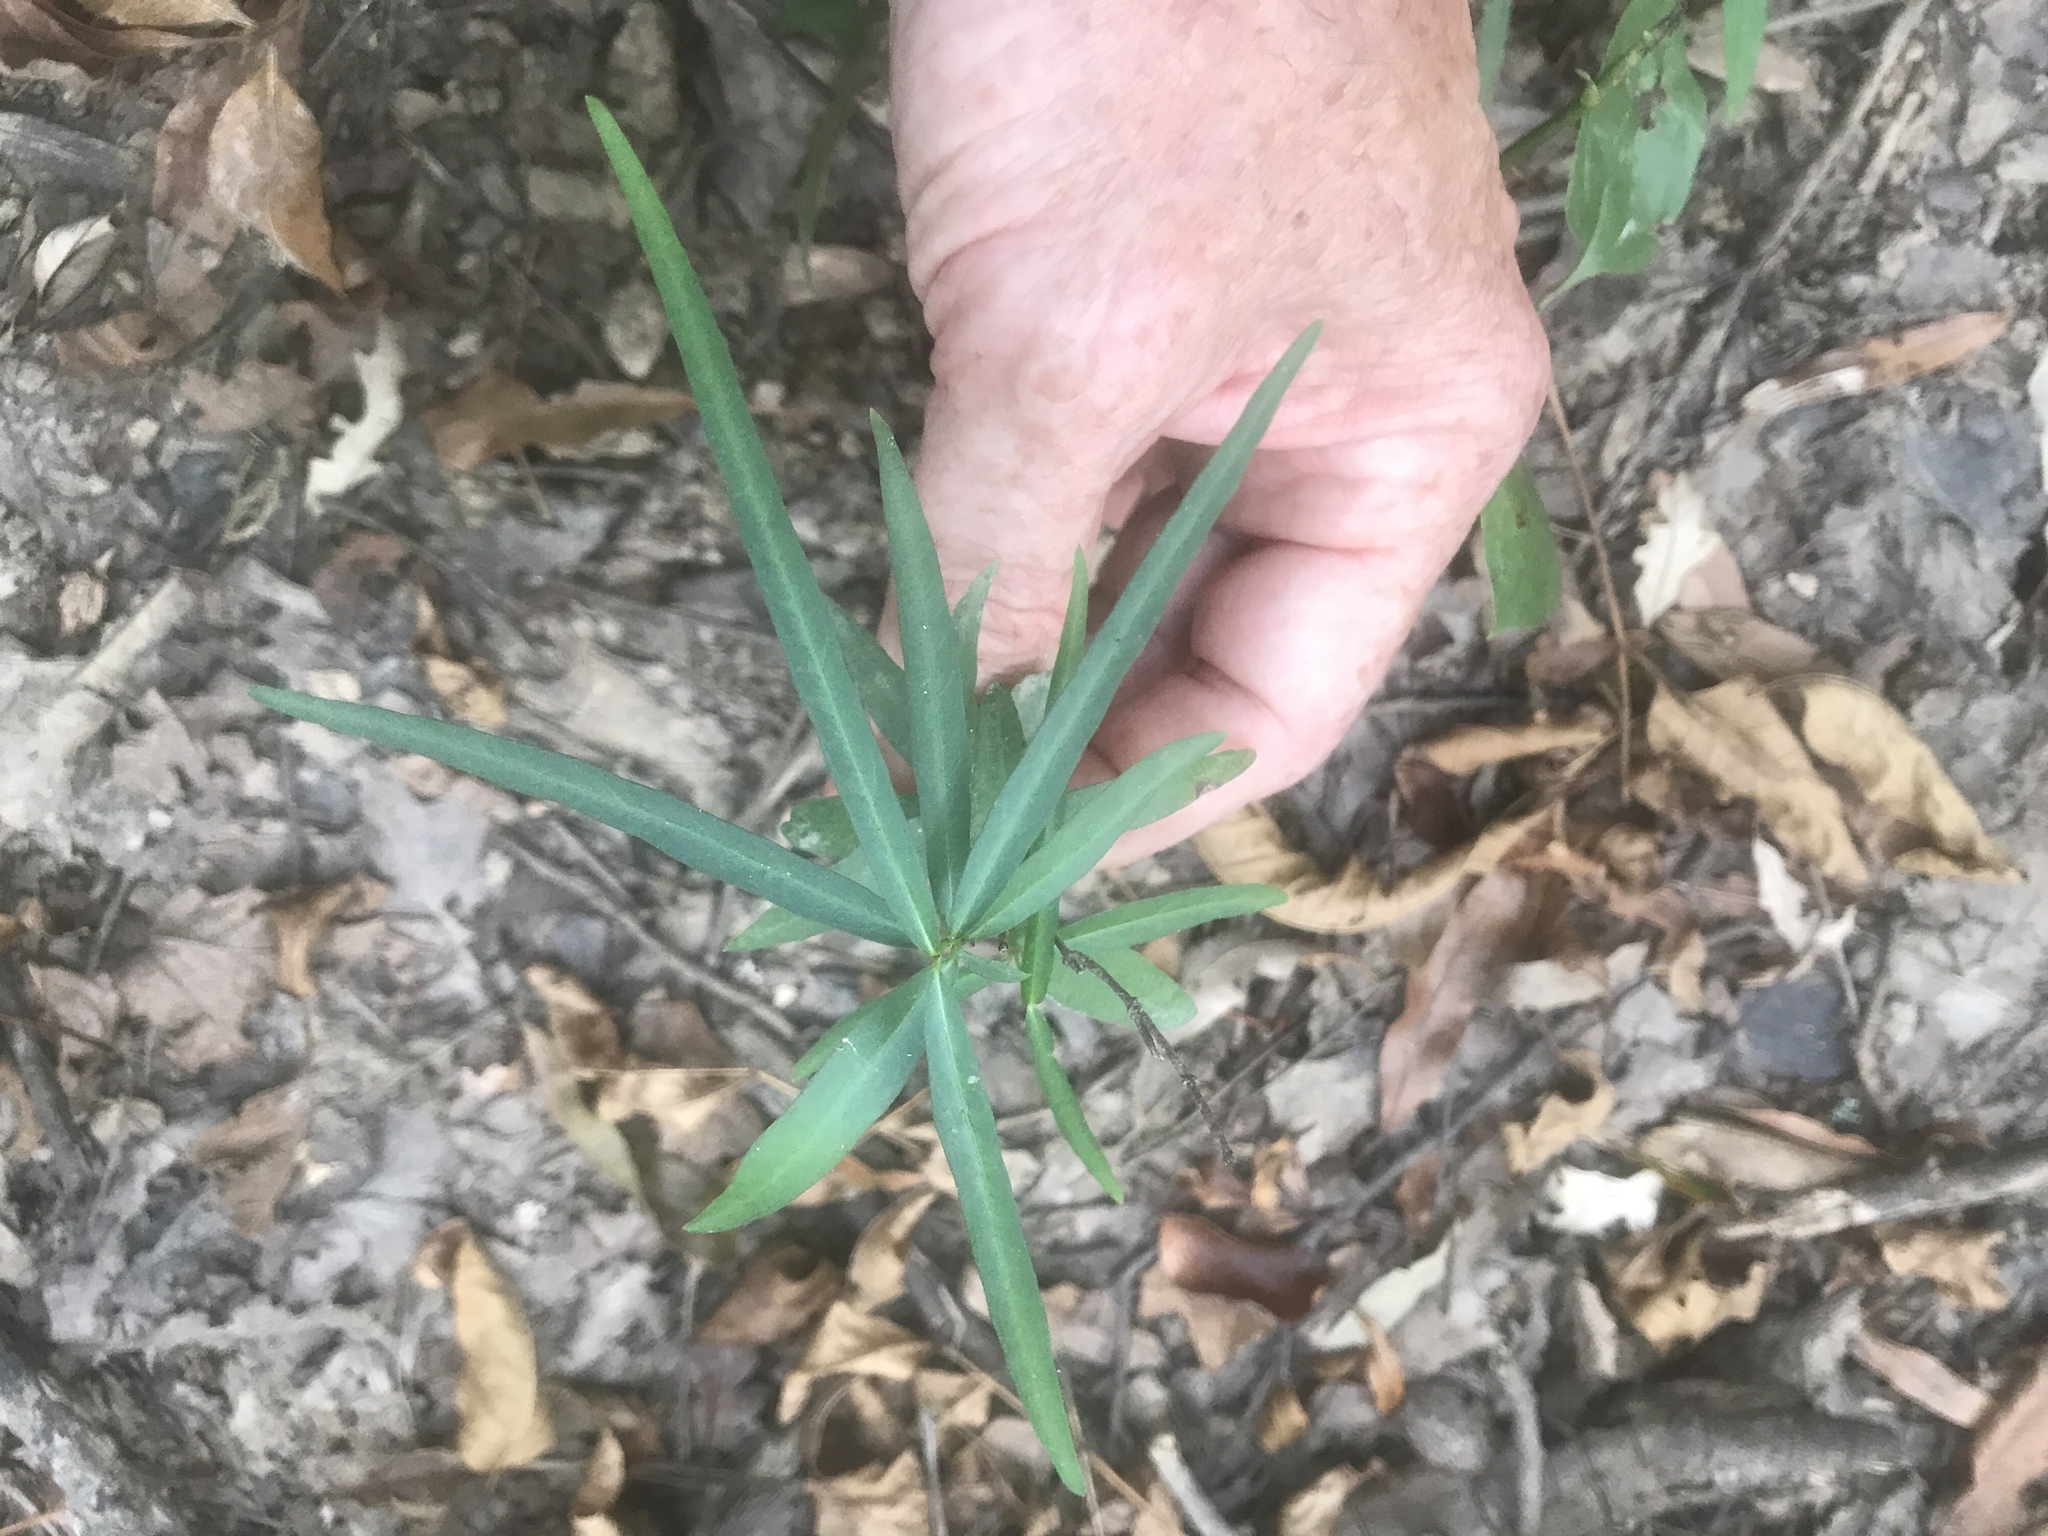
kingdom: Plantae
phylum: Tracheophyta
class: Magnoliopsida
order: Gentianales
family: Apocynaceae
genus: Thyrsanthella
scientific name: Thyrsanthella difformis
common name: Climbing dogbane
